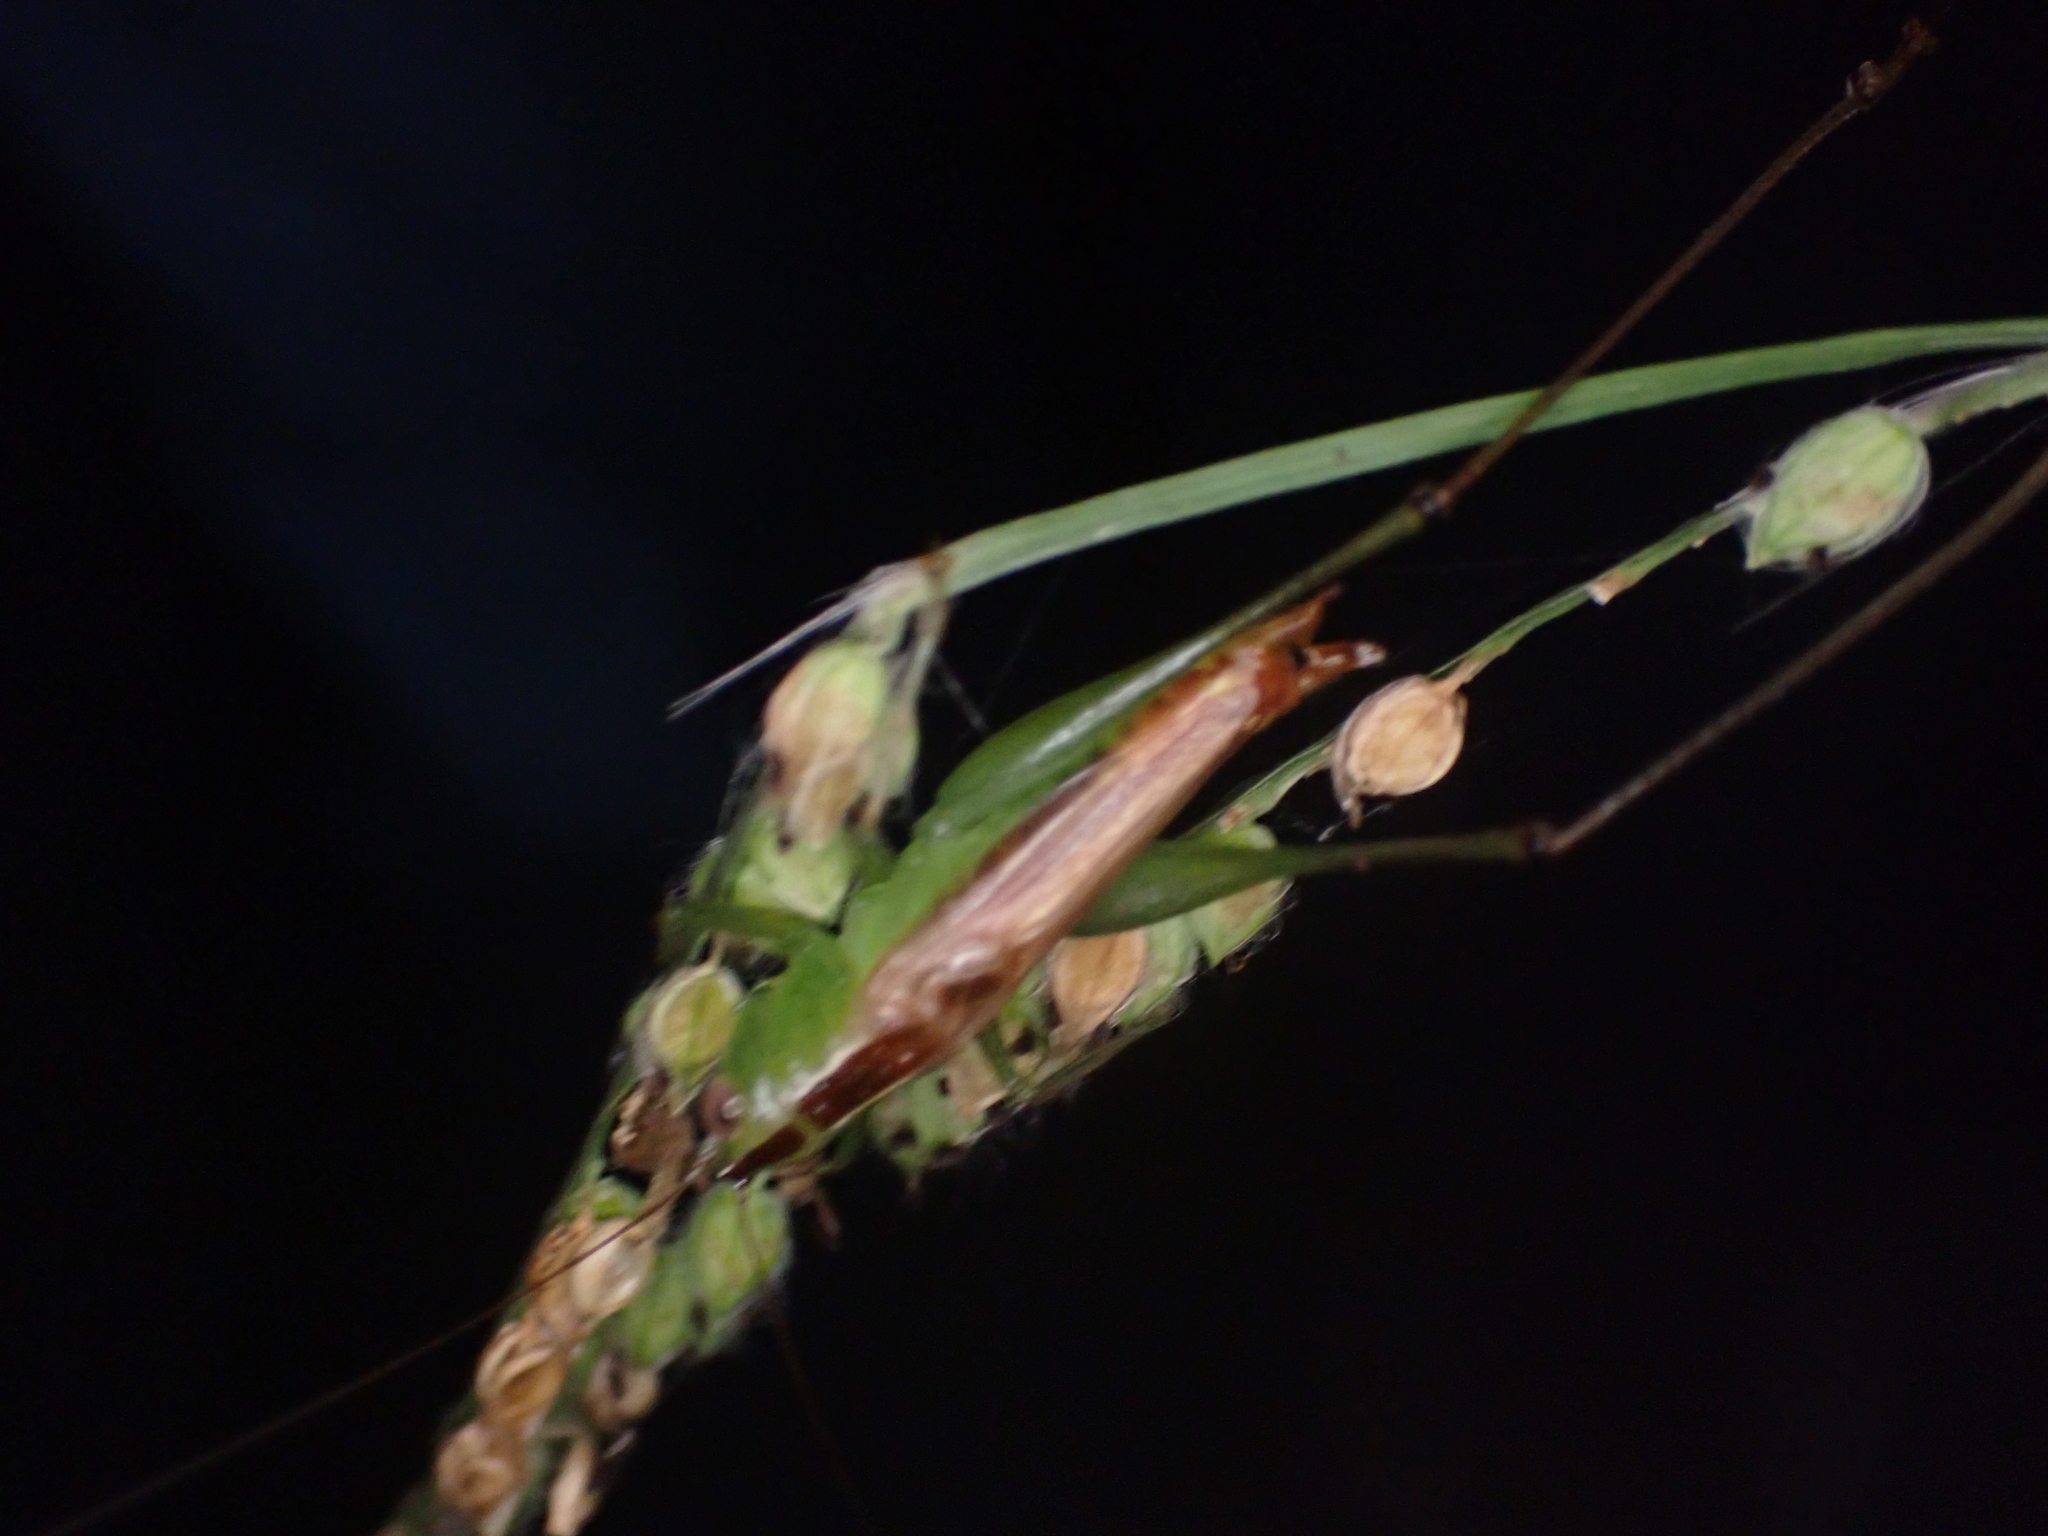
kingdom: Animalia
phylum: Arthropoda
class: Insecta
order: Orthoptera
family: Tettigoniidae
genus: Conocephalus
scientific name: Conocephalus brevipennis
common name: Short-winged meadow katydid
